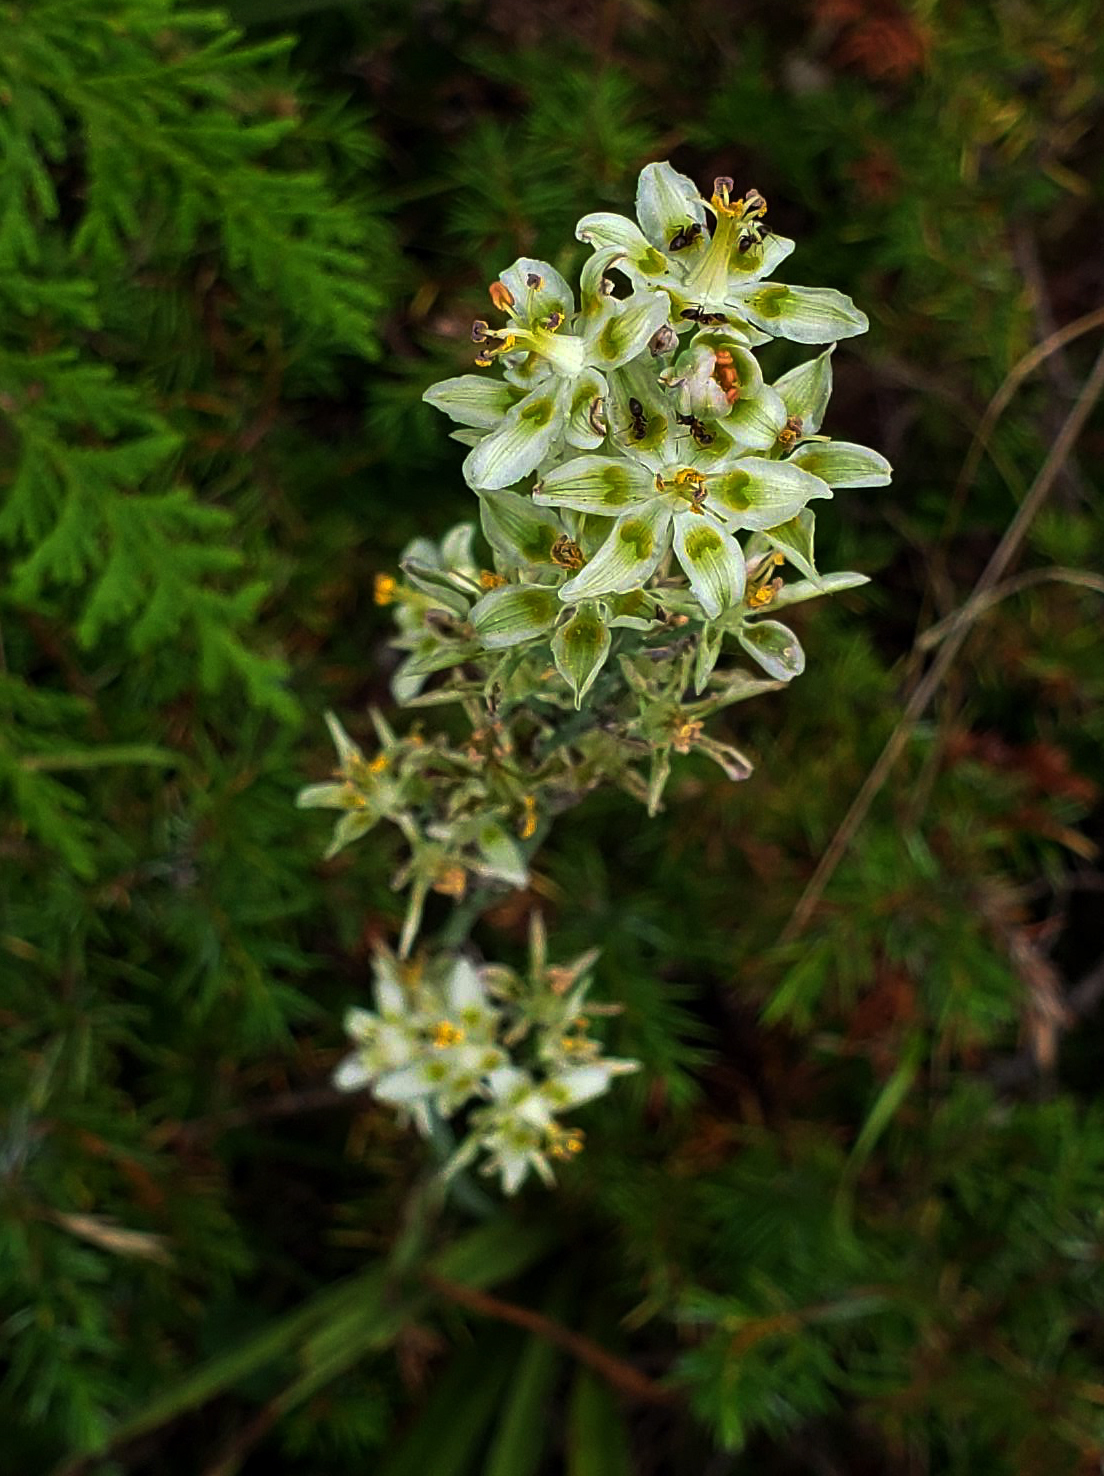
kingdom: Plantae
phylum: Tracheophyta
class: Liliopsida
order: Liliales
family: Melanthiaceae
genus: Anticlea
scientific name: Anticlea elegans
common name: Mountain death camas
